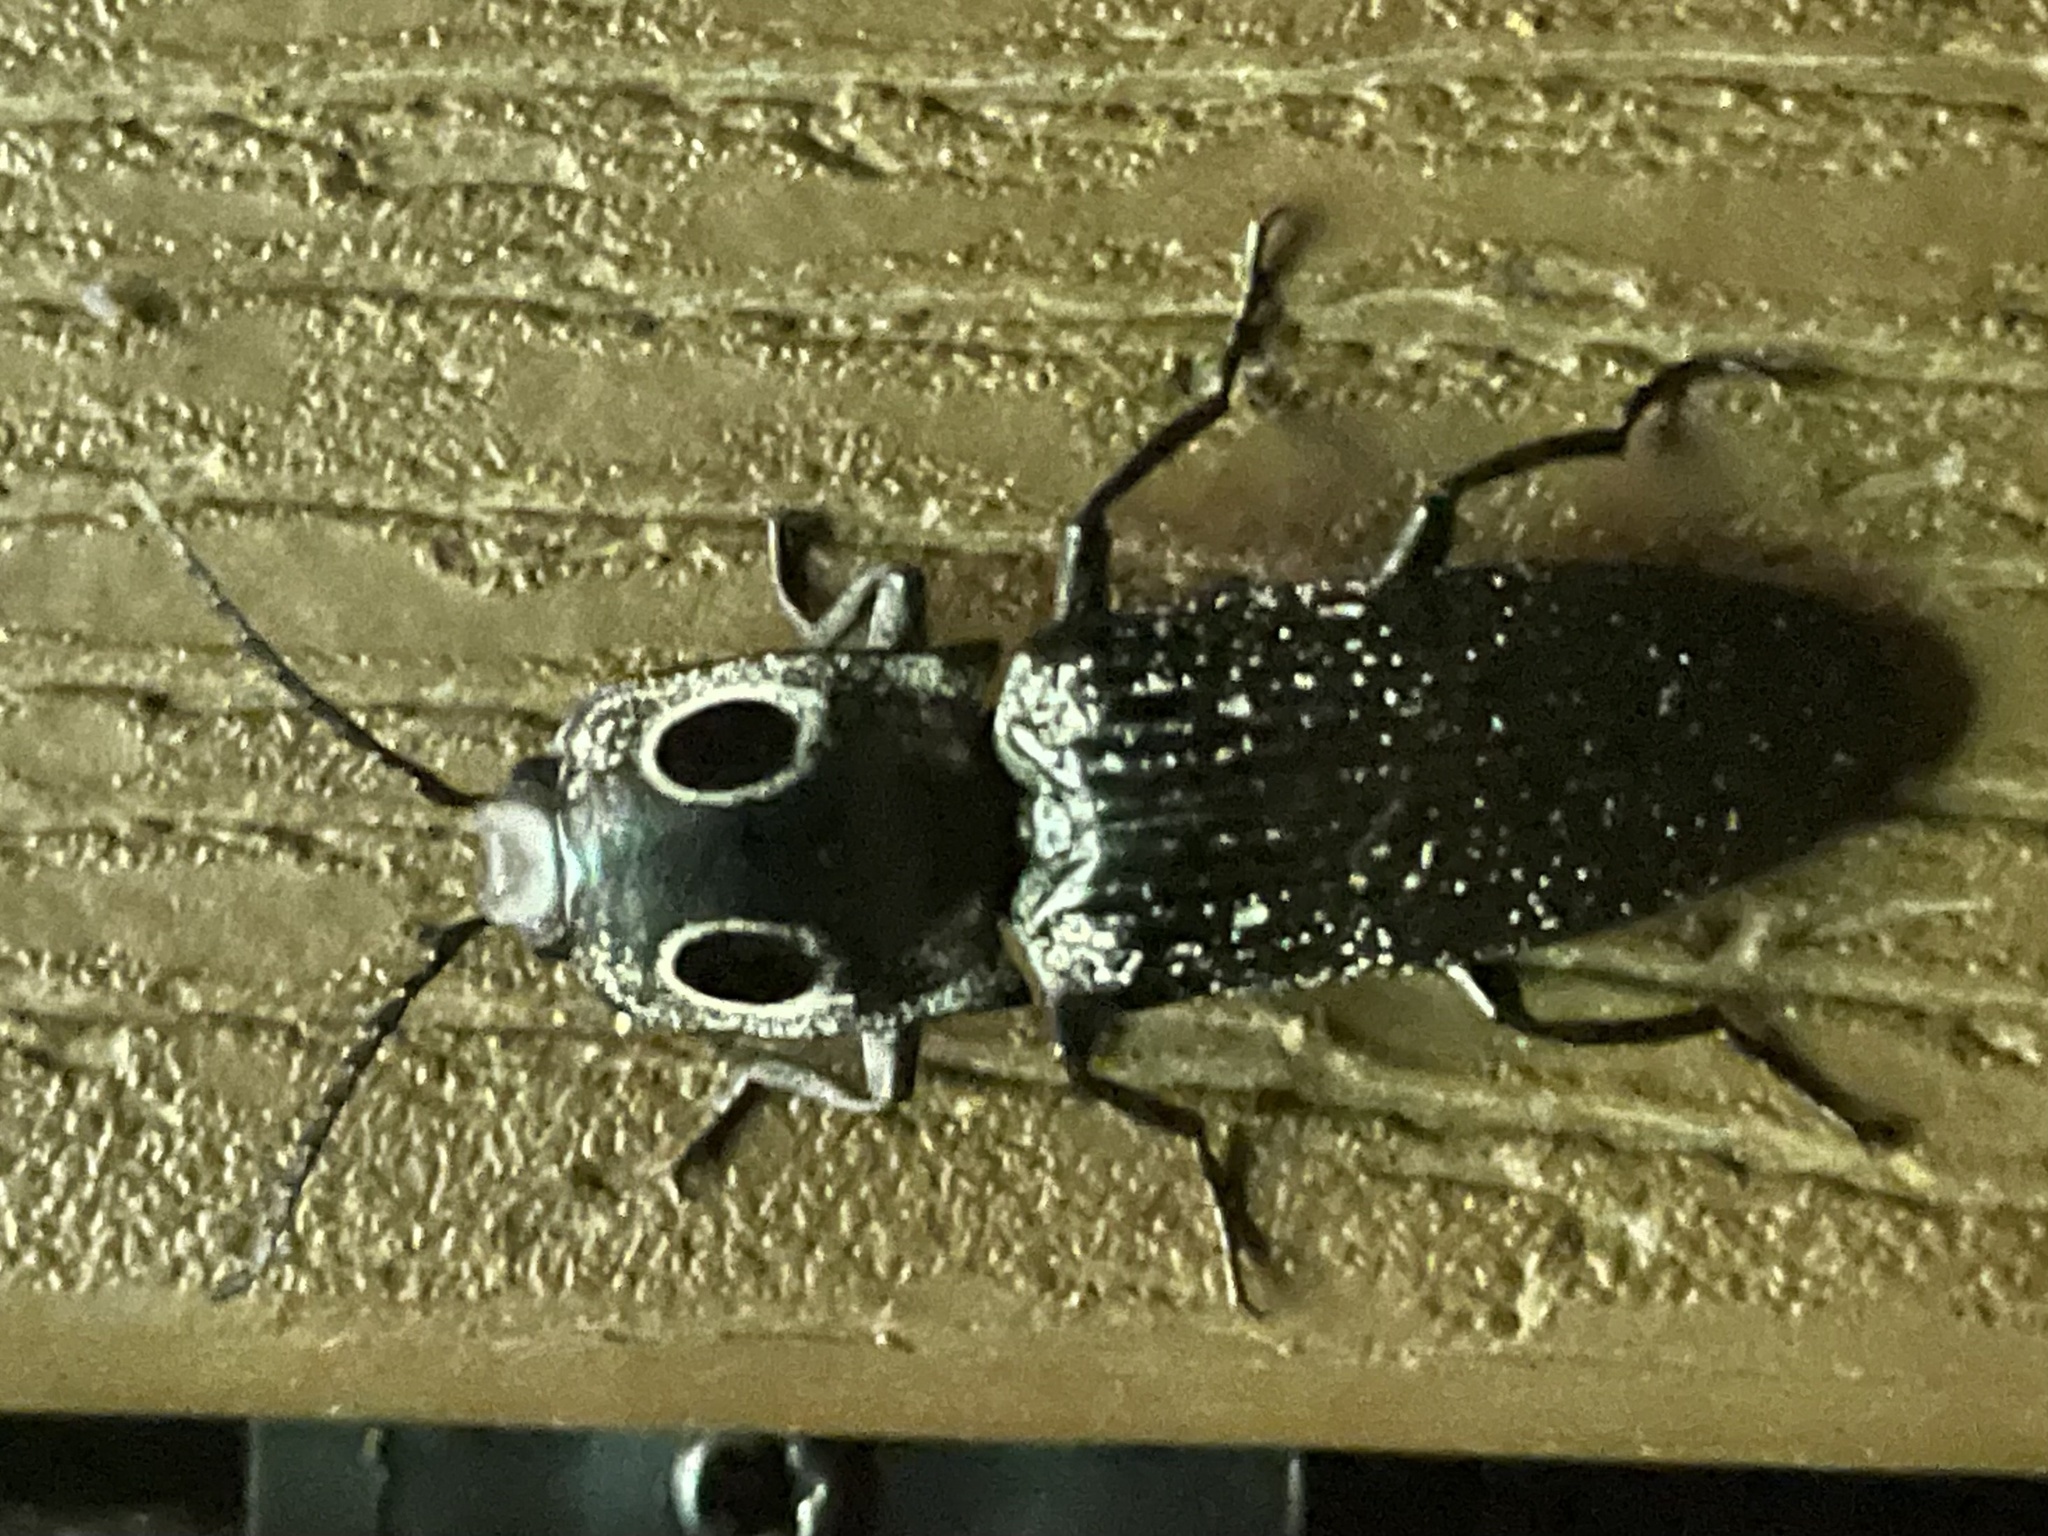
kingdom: Animalia
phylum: Arthropoda
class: Insecta
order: Coleoptera
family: Elateridae
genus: Alaus
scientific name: Alaus oculatus
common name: Eastern eyed click beetle
